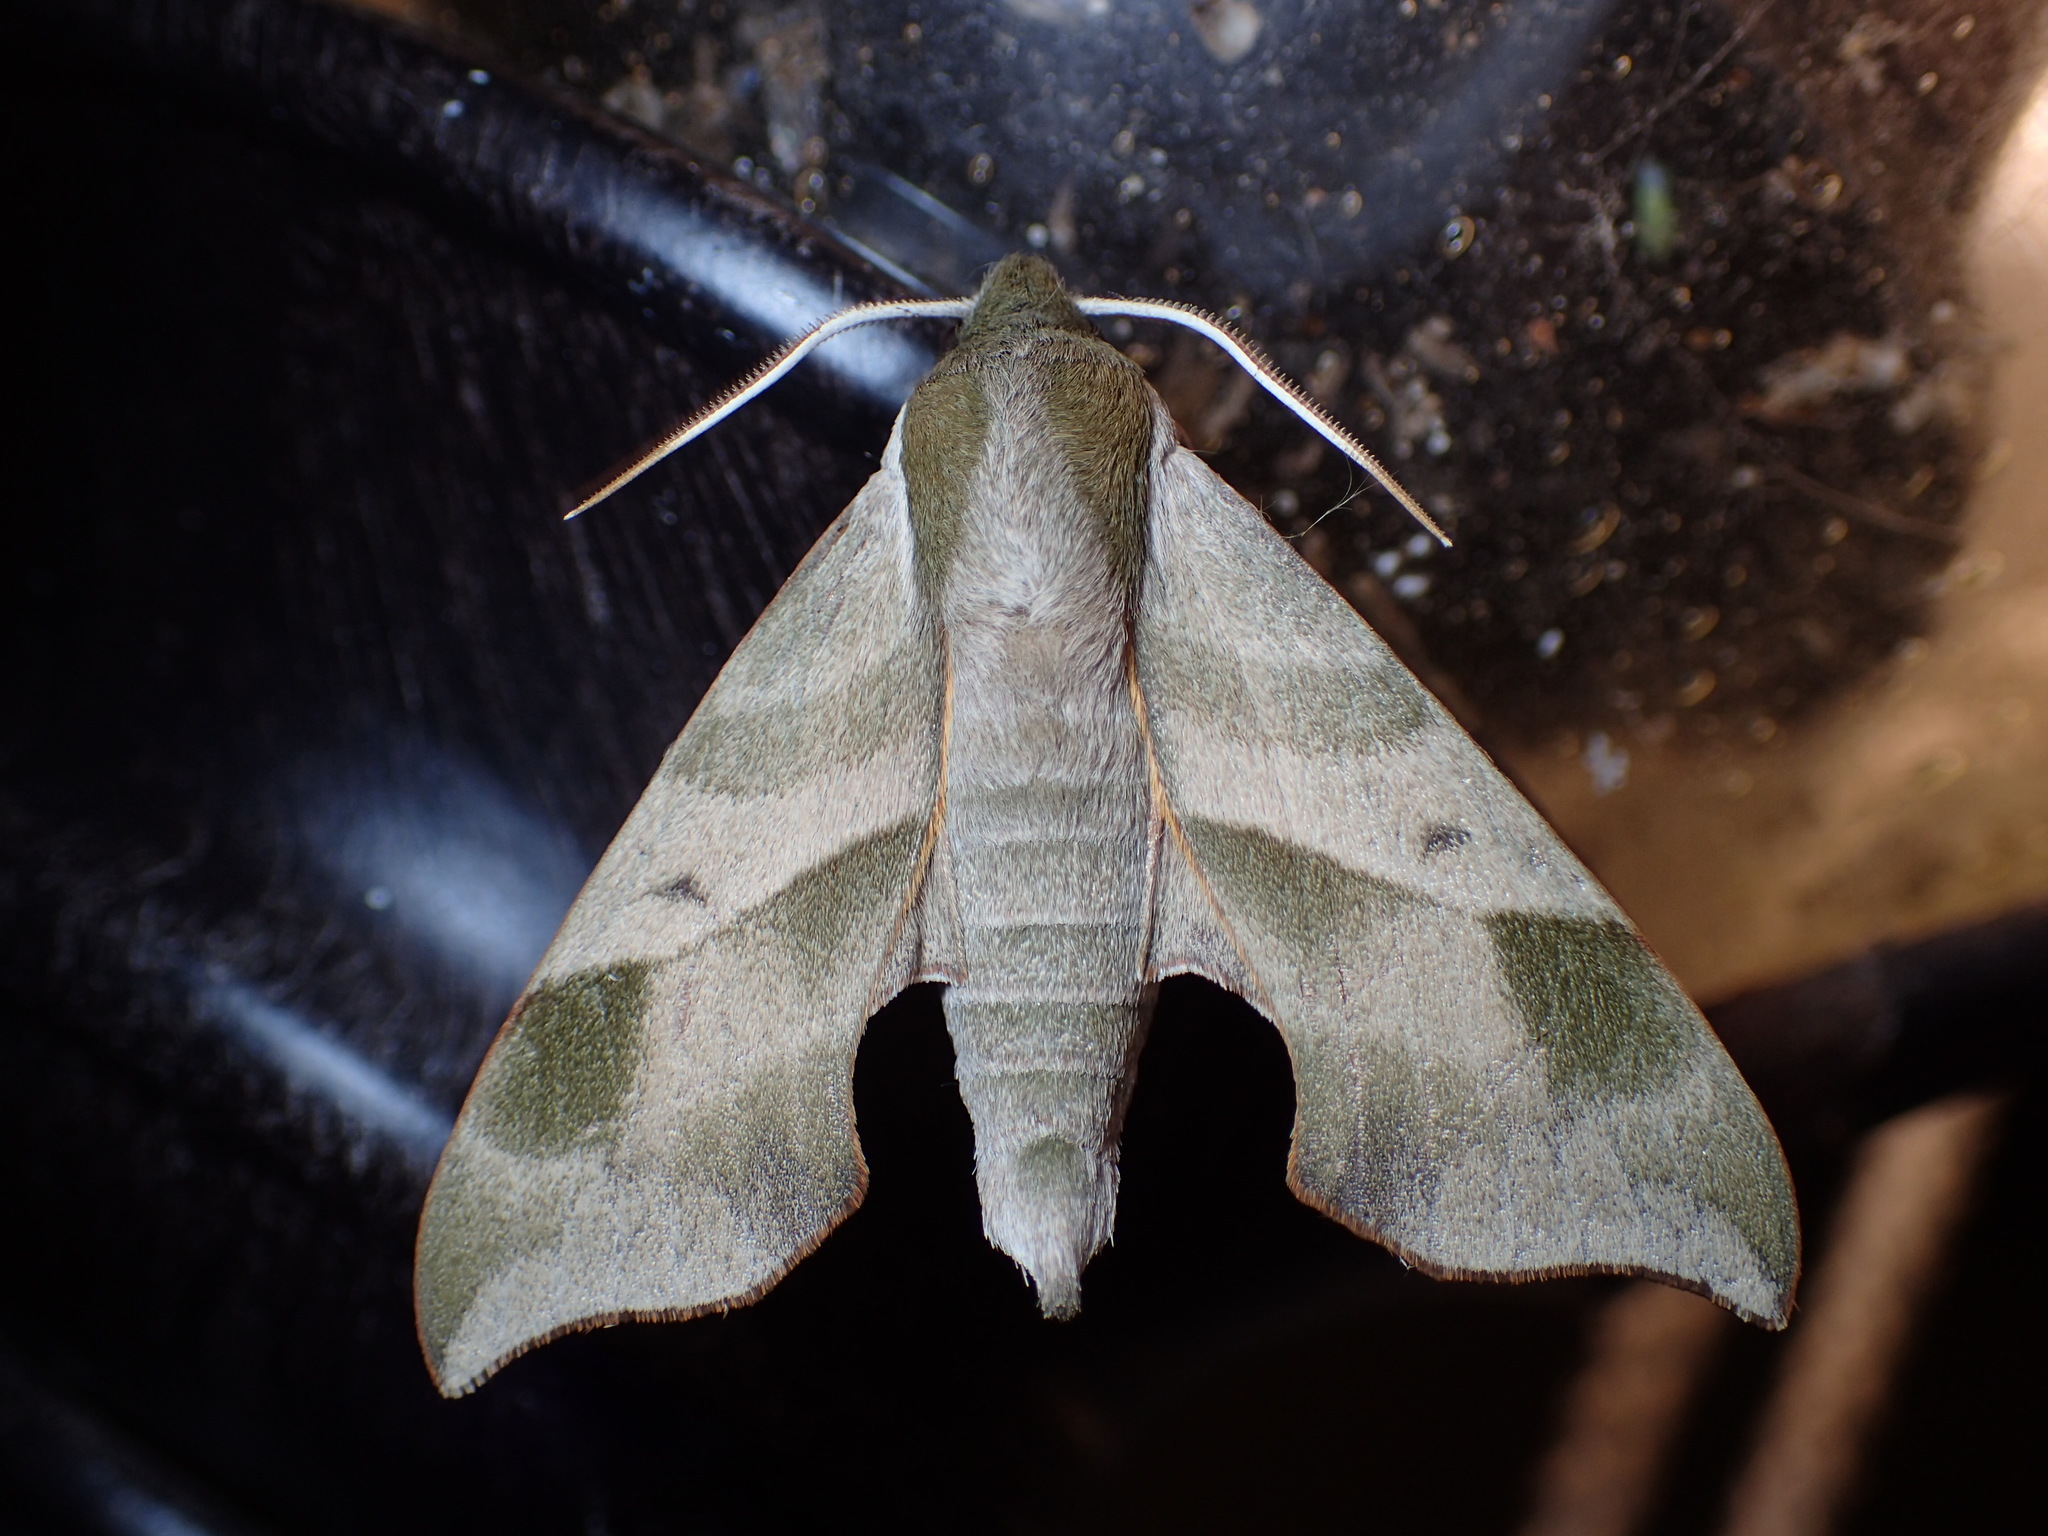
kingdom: Animalia
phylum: Arthropoda
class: Insecta
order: Lepidoptera
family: Sphingidae
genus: Darapsa
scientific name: Darapsa myron
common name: Hog sphinx
